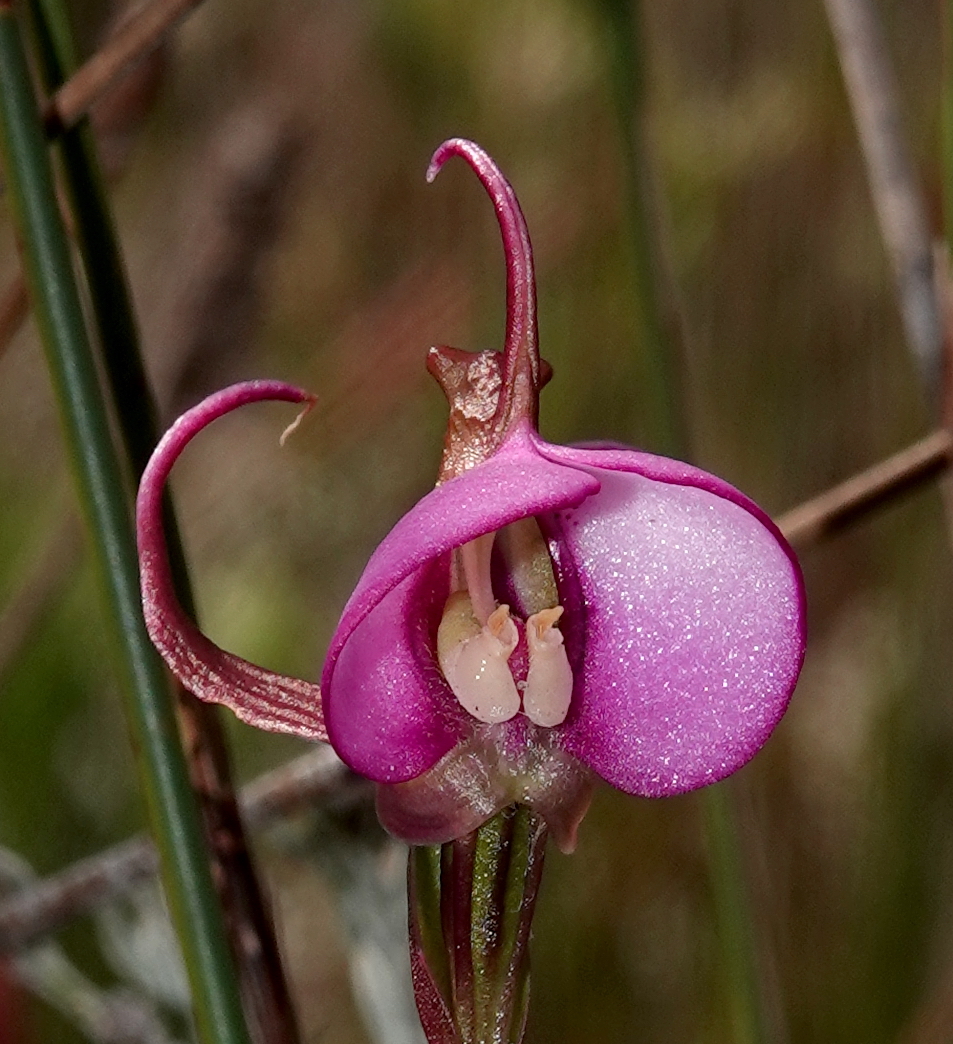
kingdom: Plantae
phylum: Tracheophyta
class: Liliopsida
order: Asparagales
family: Orchidaceae
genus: Disperis
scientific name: Disperis capensis
